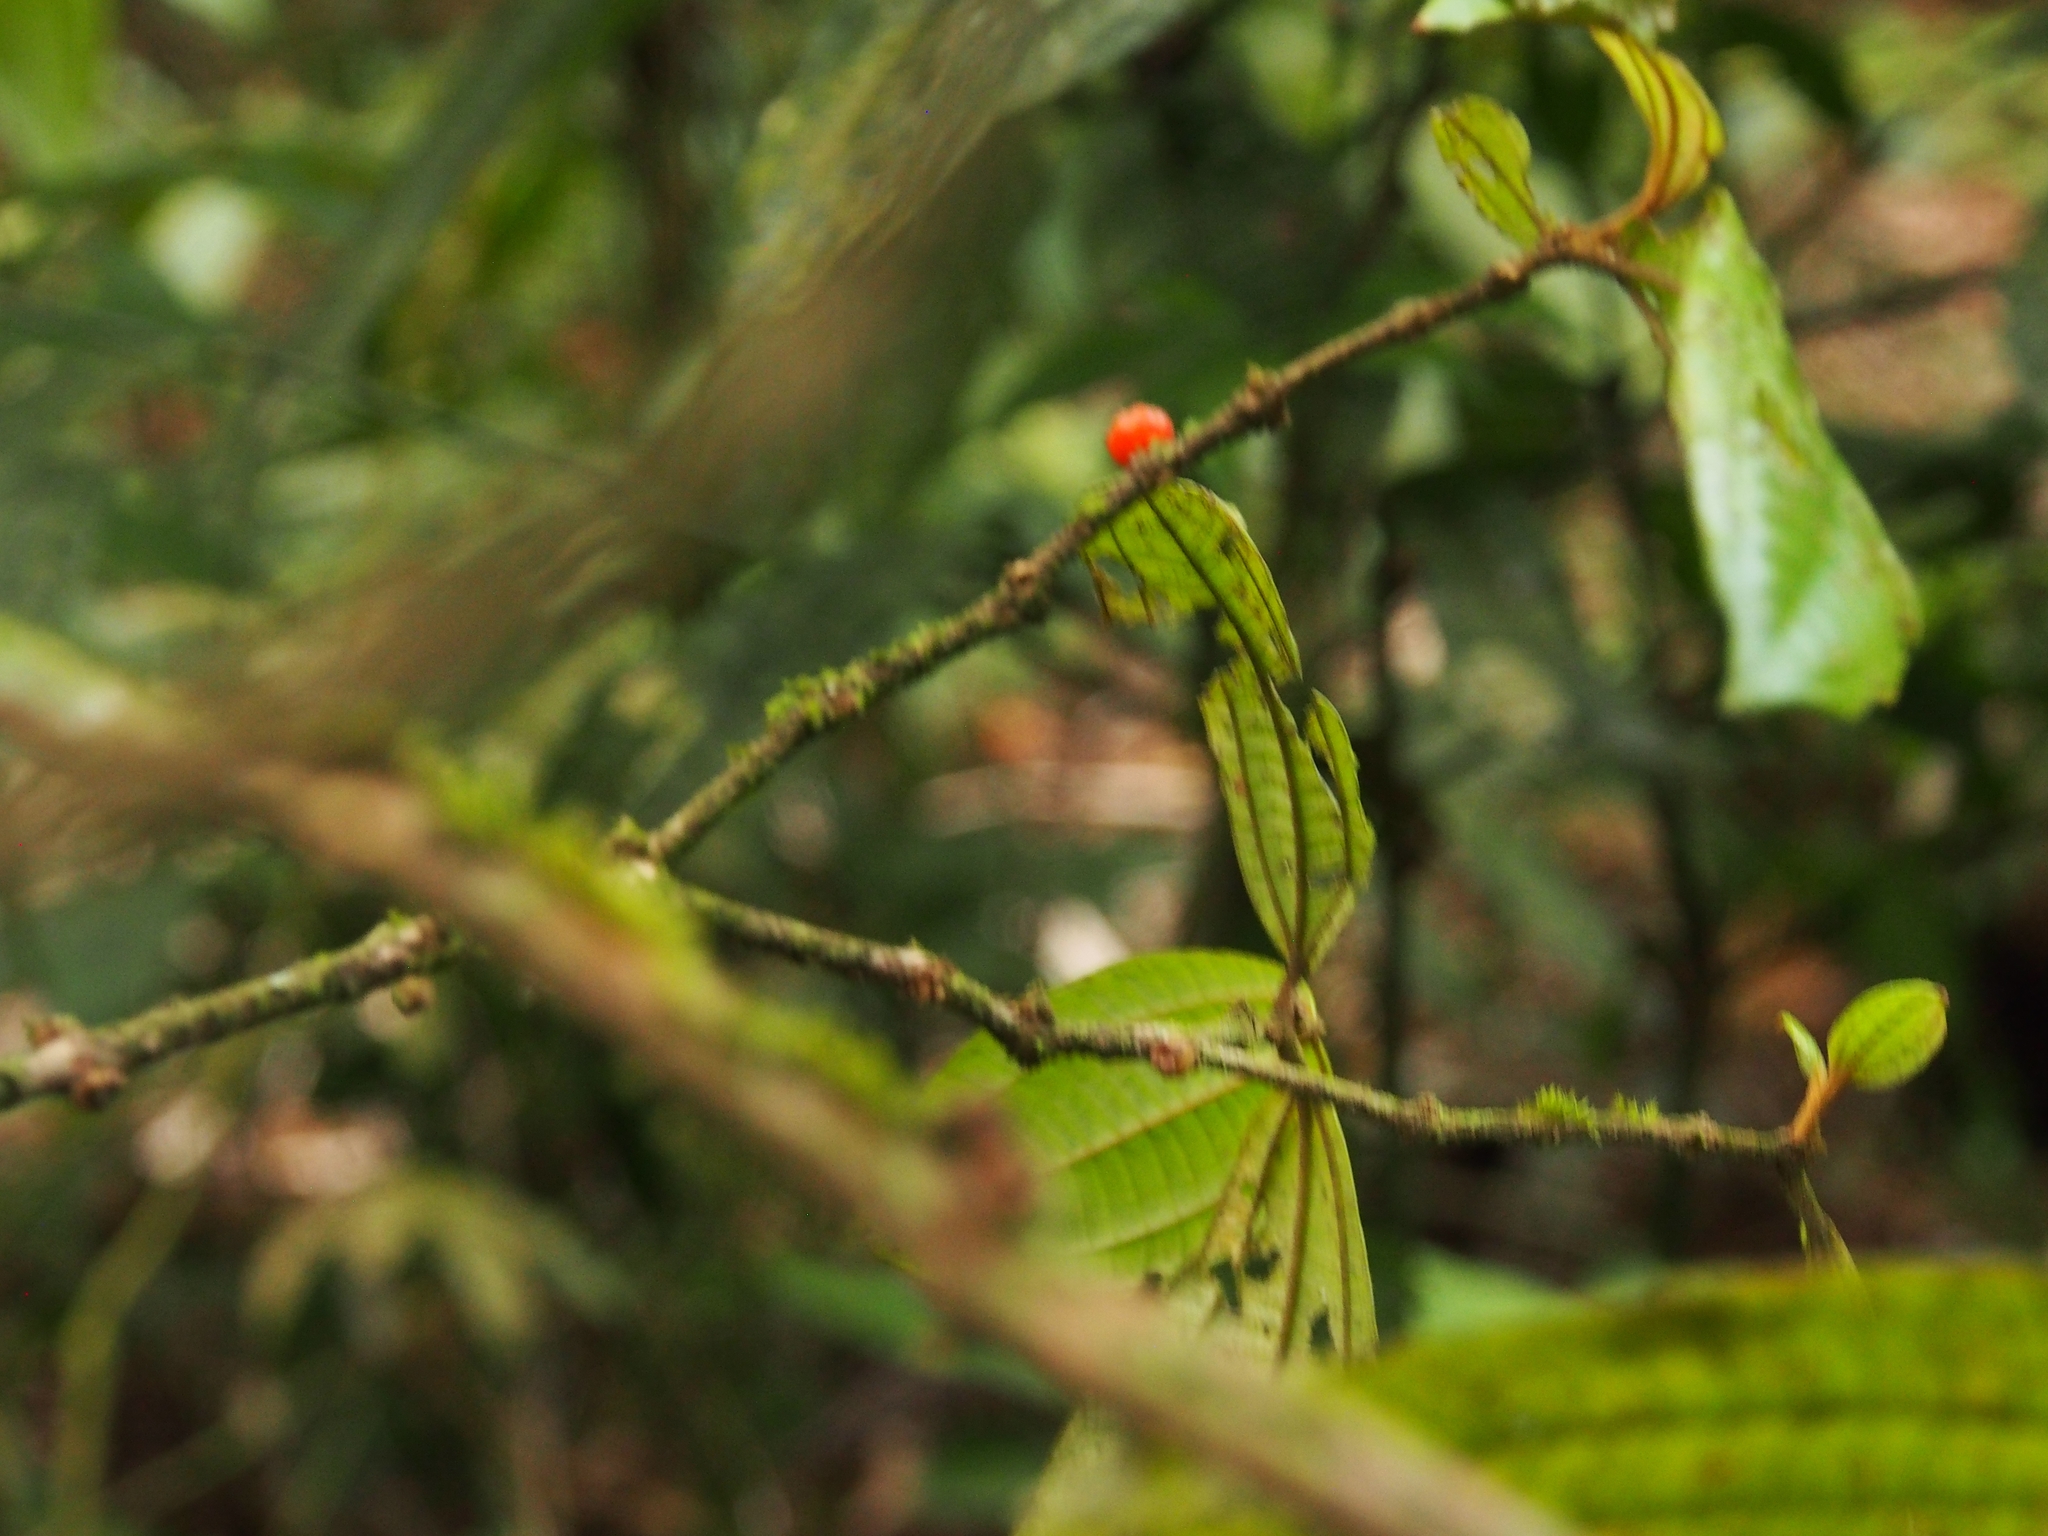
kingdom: Plantae
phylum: Tracheophyta
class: Magnoliopsida
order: Myrtales
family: Melastomataceae
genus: Miconia
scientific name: Miconia aurantiaca
